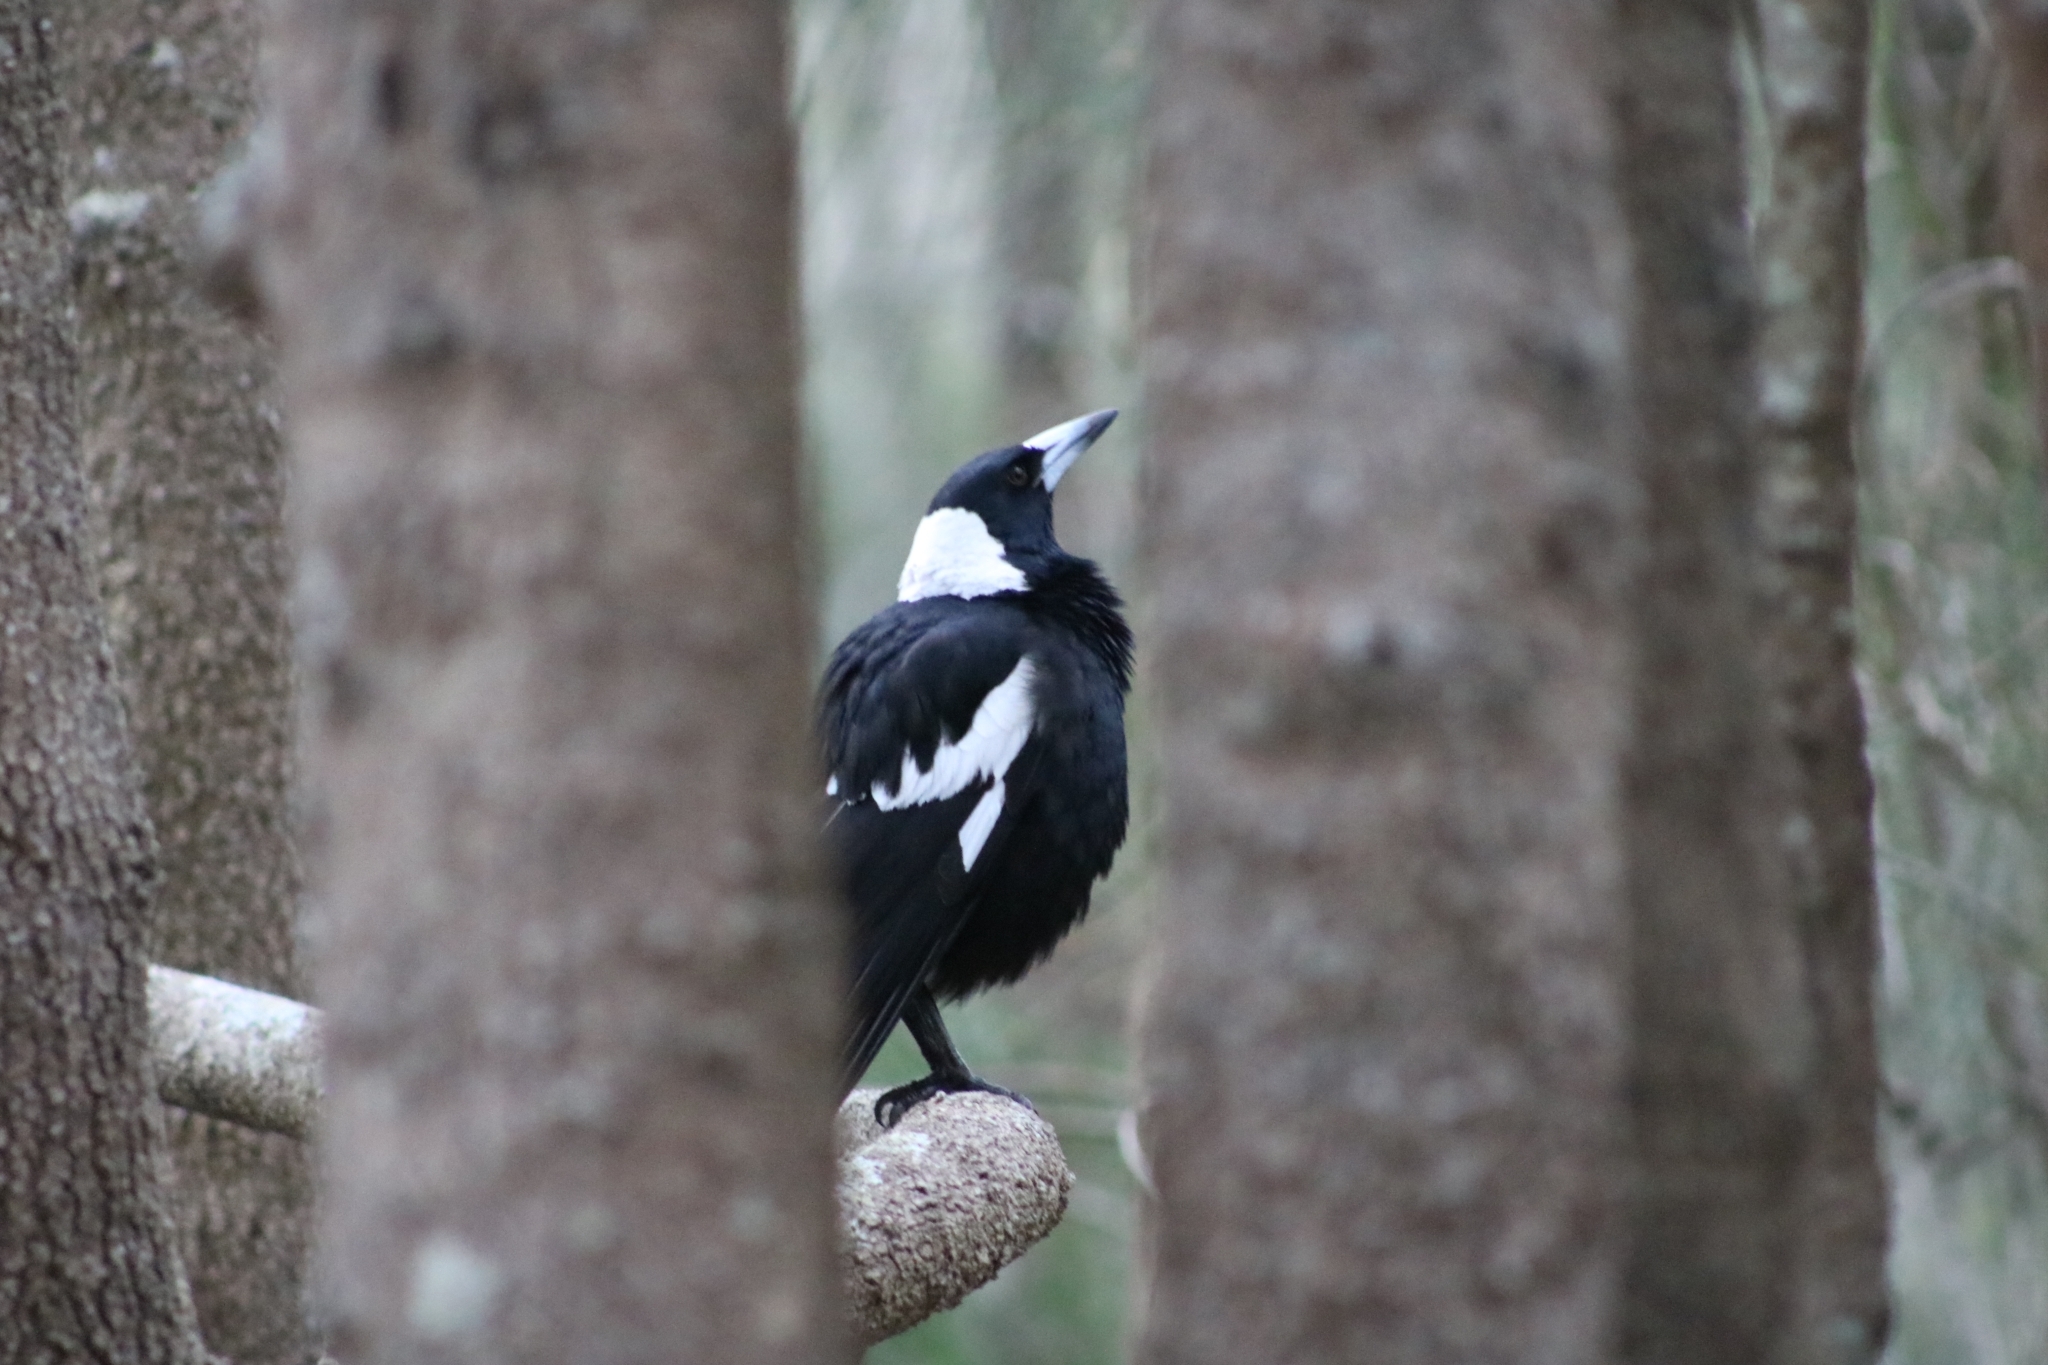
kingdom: Animalia
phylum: Chordata
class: Aves
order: Passeriformes
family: Cracticidae
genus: Gymnorhina
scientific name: Gymnorhina tibicen
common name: Australian magpie
